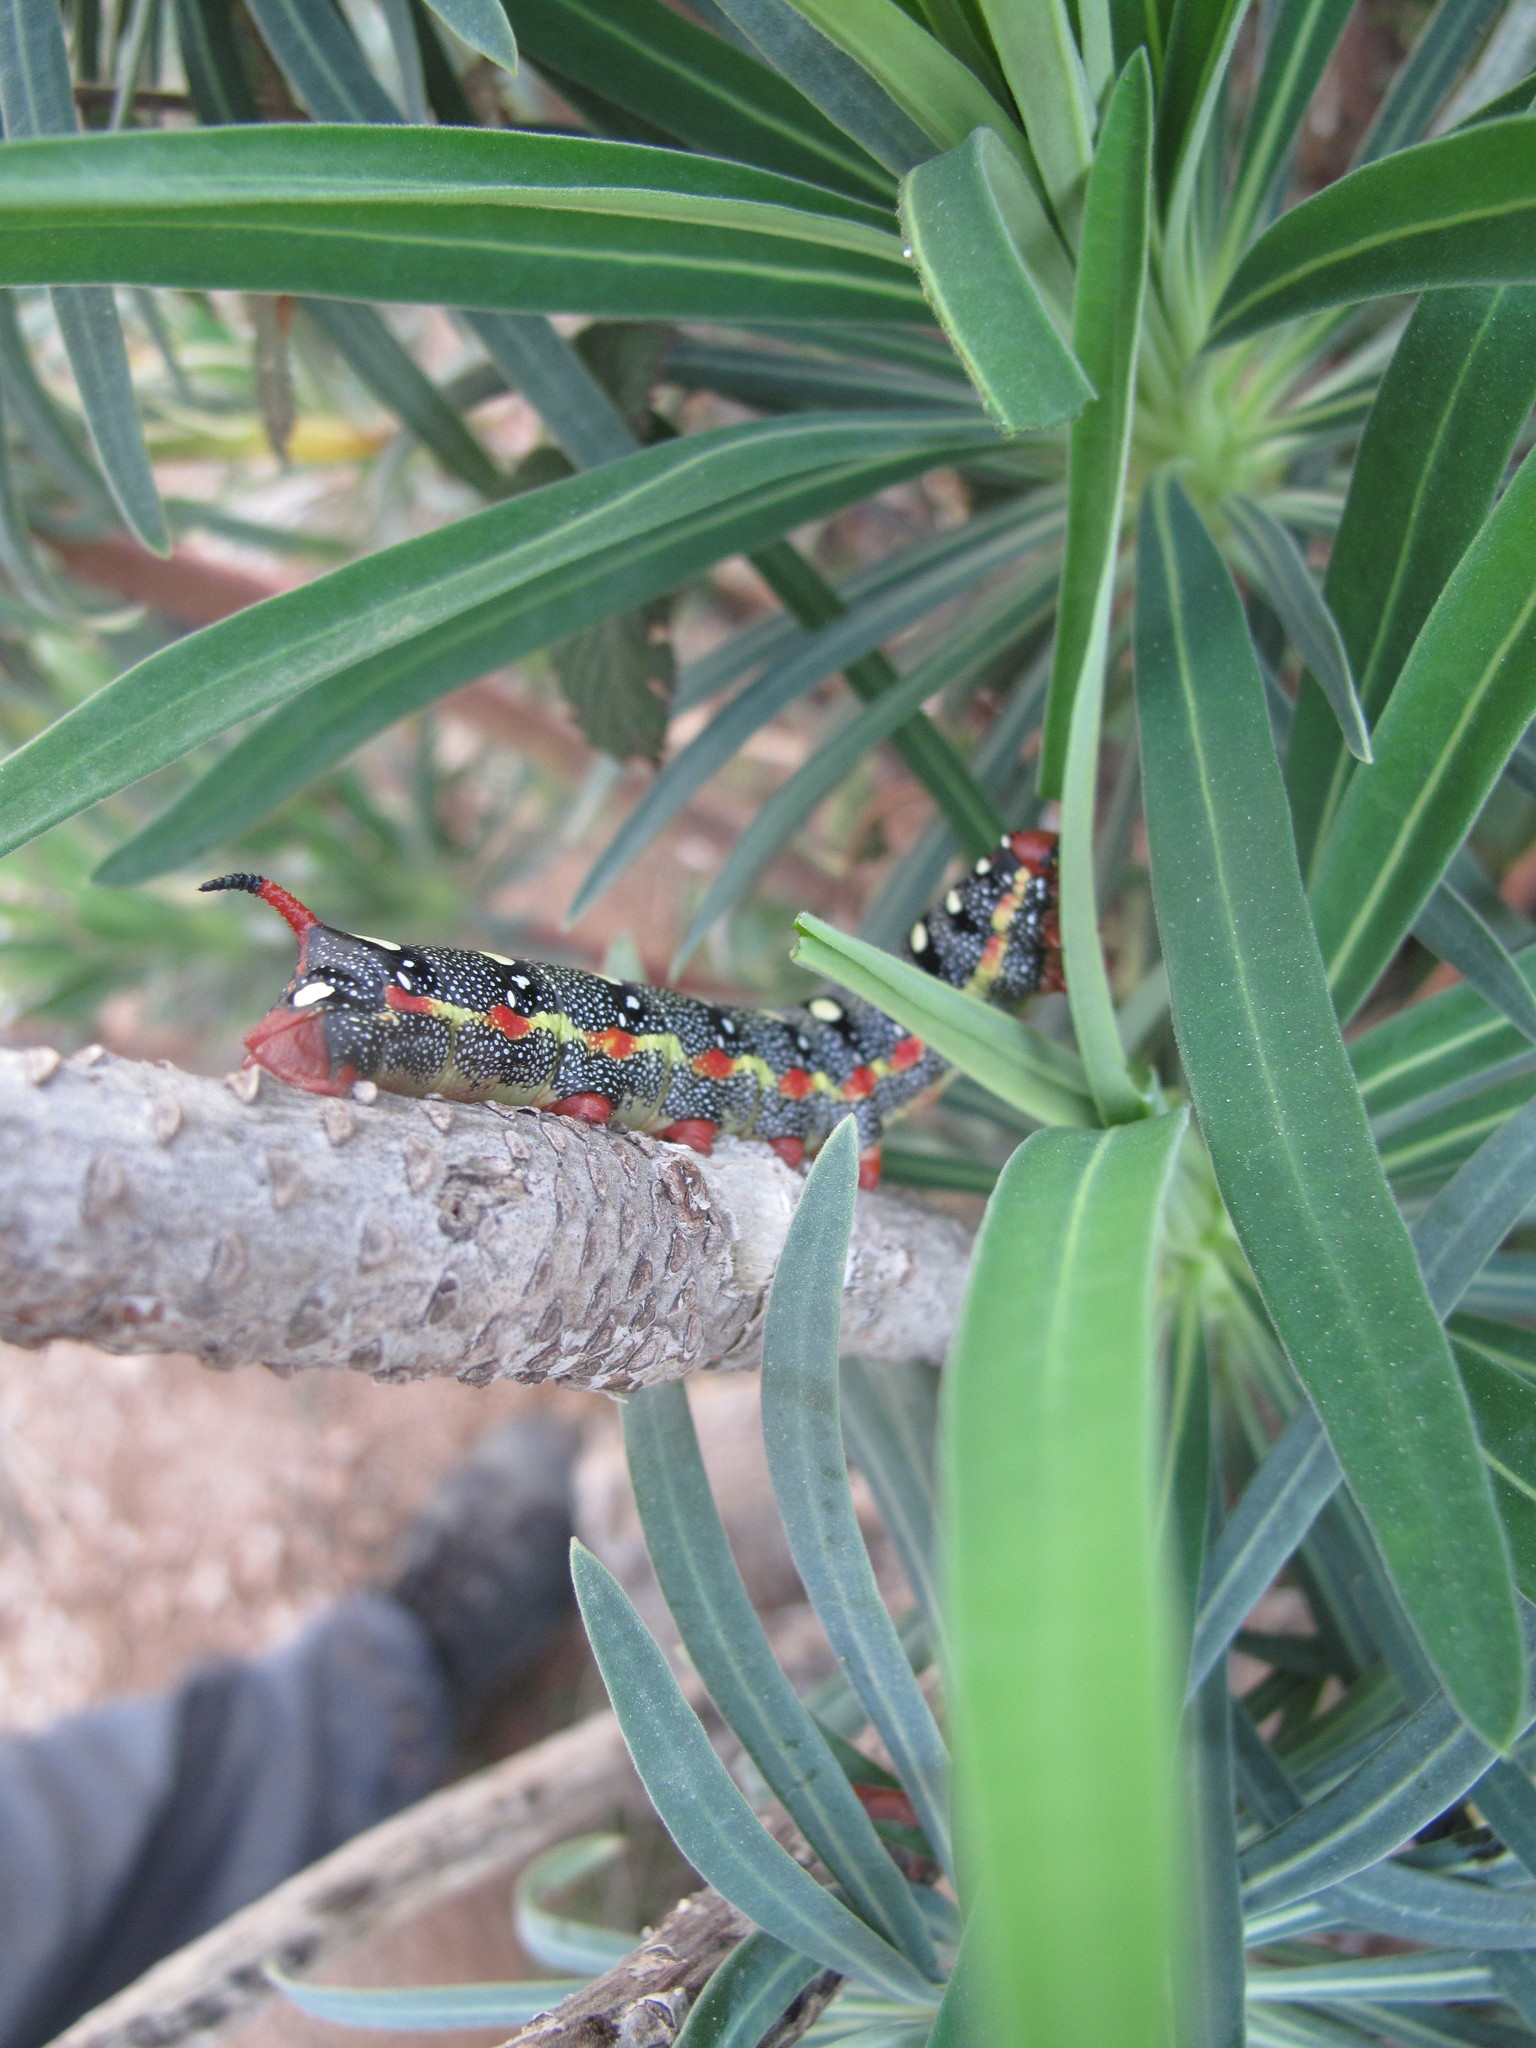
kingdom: Animalia
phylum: Arthropoda
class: Insecta
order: Lepidoptera
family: Sphingidae
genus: Hyles
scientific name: Hyles euphorbiae
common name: Spurge hawk-moth
